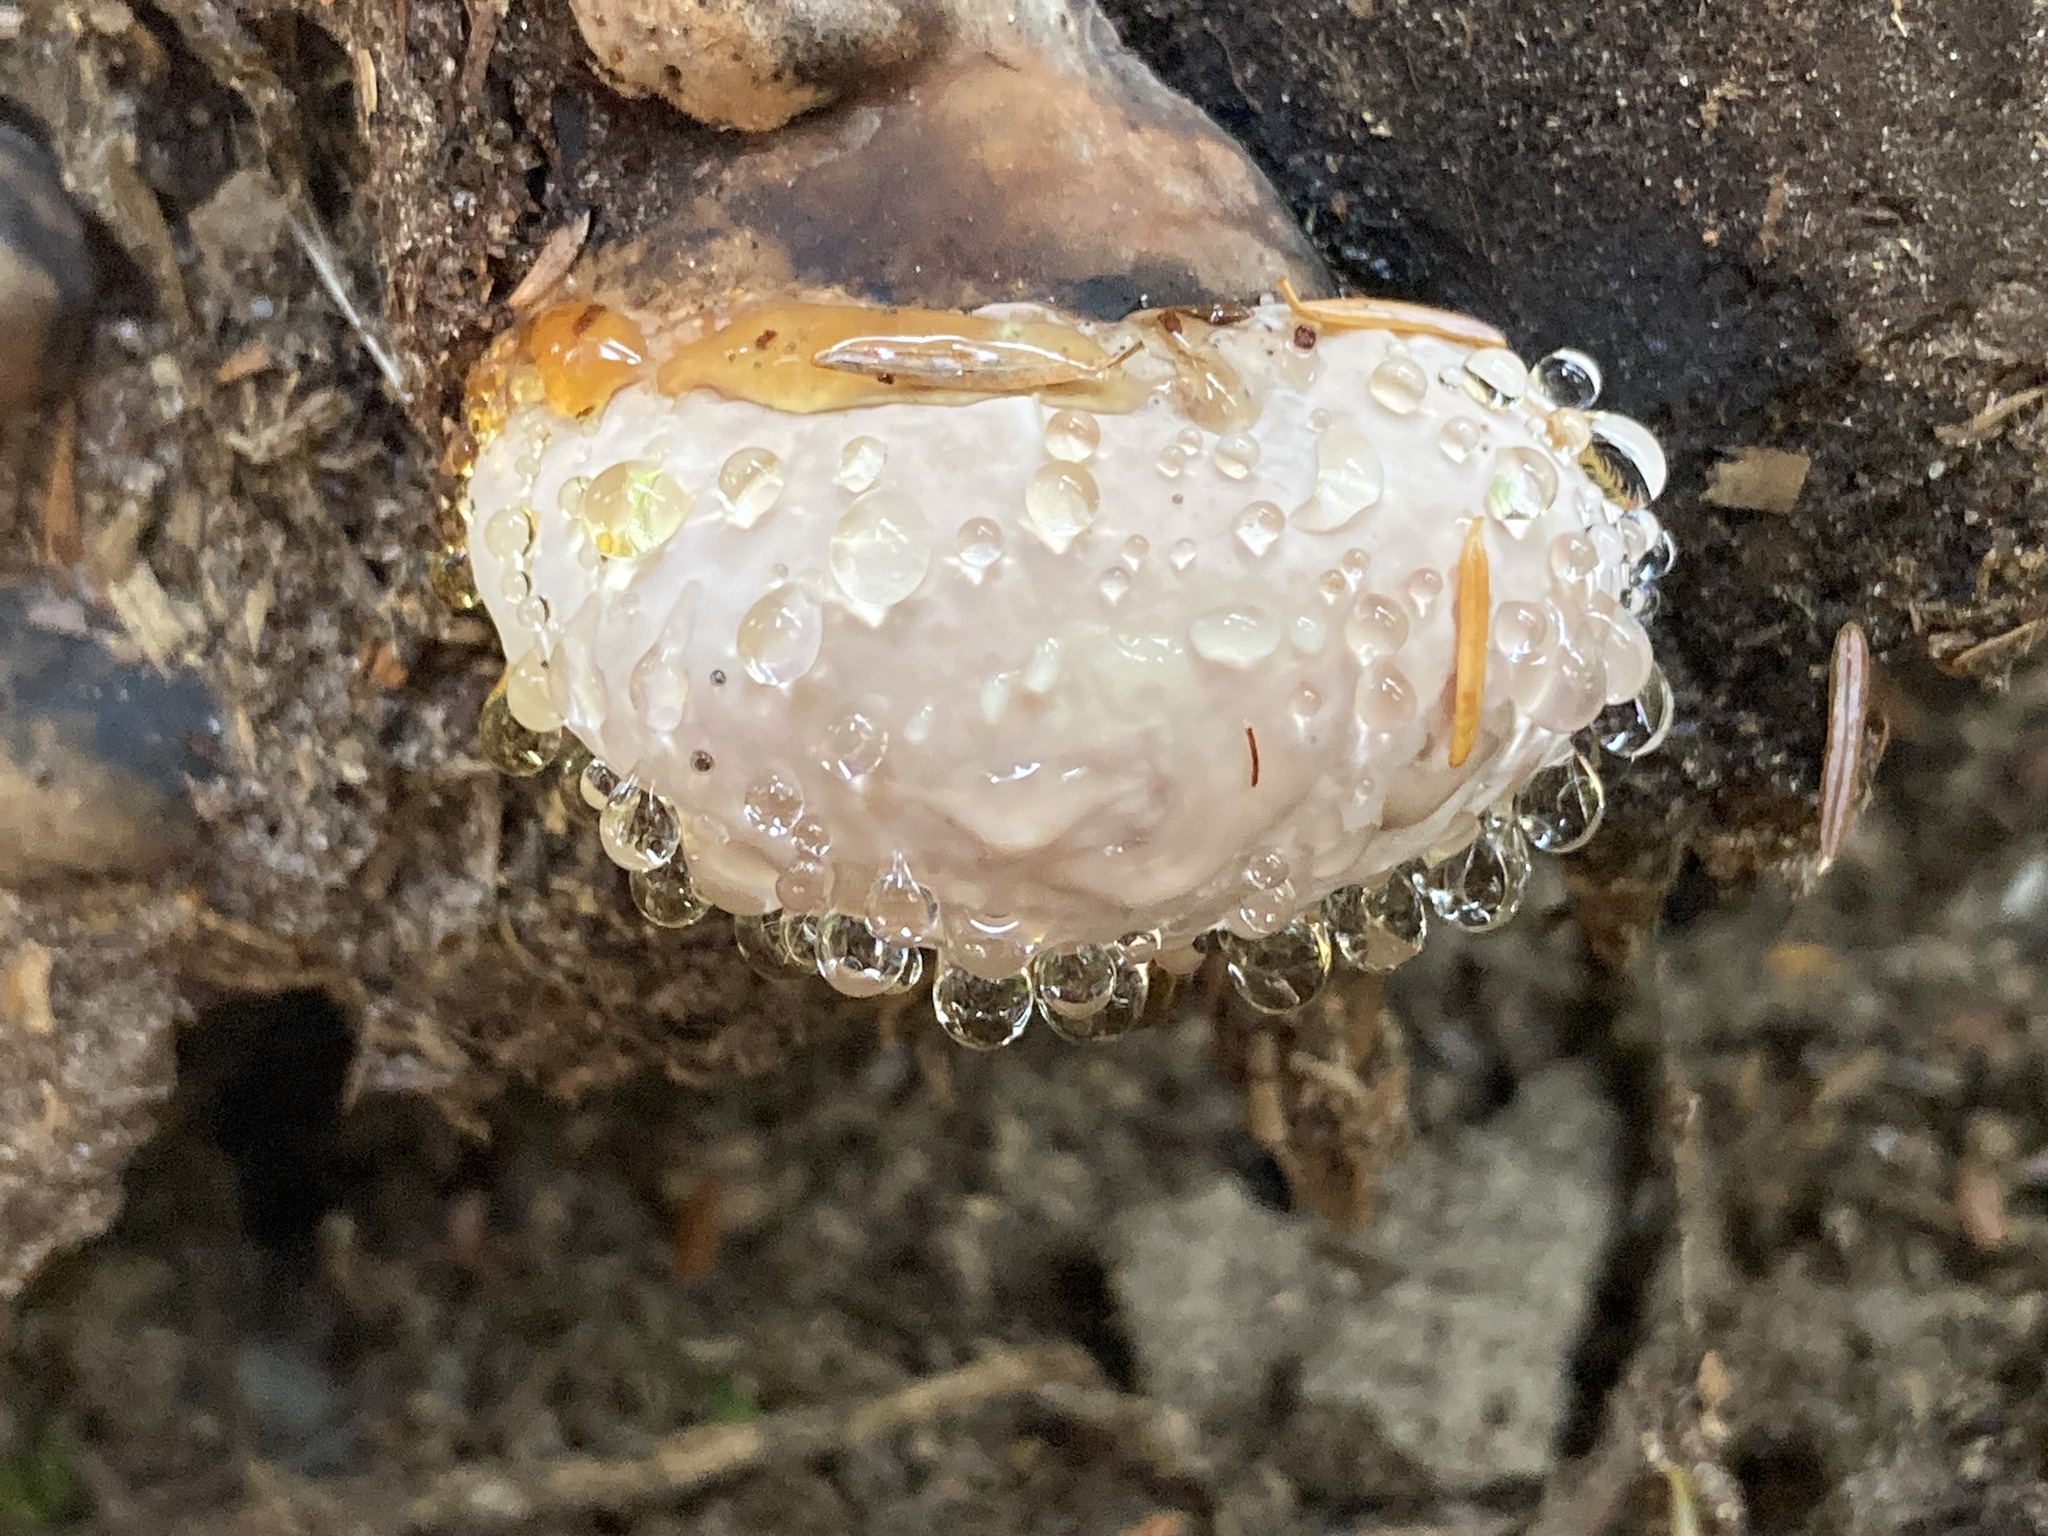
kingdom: Fungi
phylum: Basidiomycota
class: Agaricomycetes
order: Polyporales
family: Fomitopsidaceae
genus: Fomitopsis
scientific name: Fomitopsis mounceae
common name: Northern red belt
